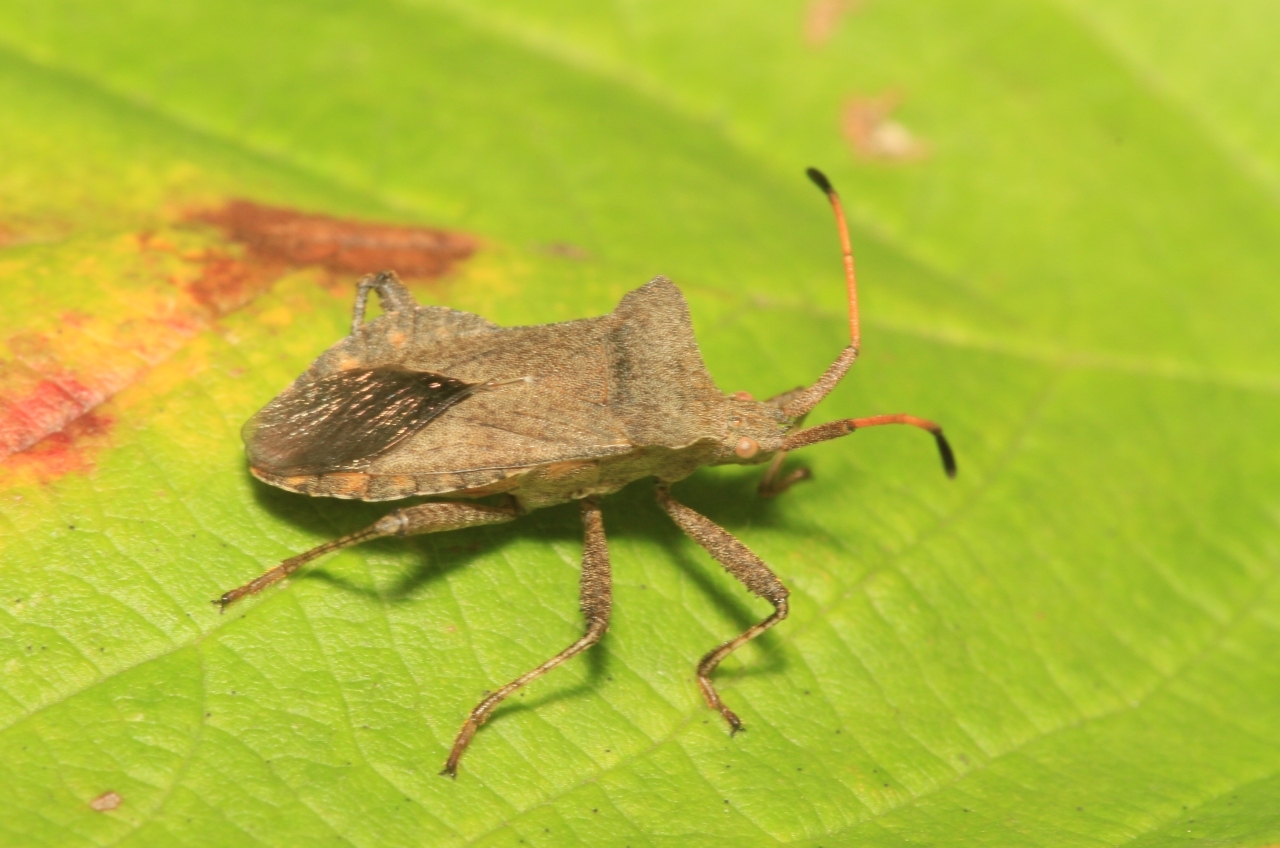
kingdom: Animalia
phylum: Arthropoda
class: Insecta
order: Hemiptera
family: Coreidae
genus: Coreus
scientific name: Coreus marginatus
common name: Dock bug
